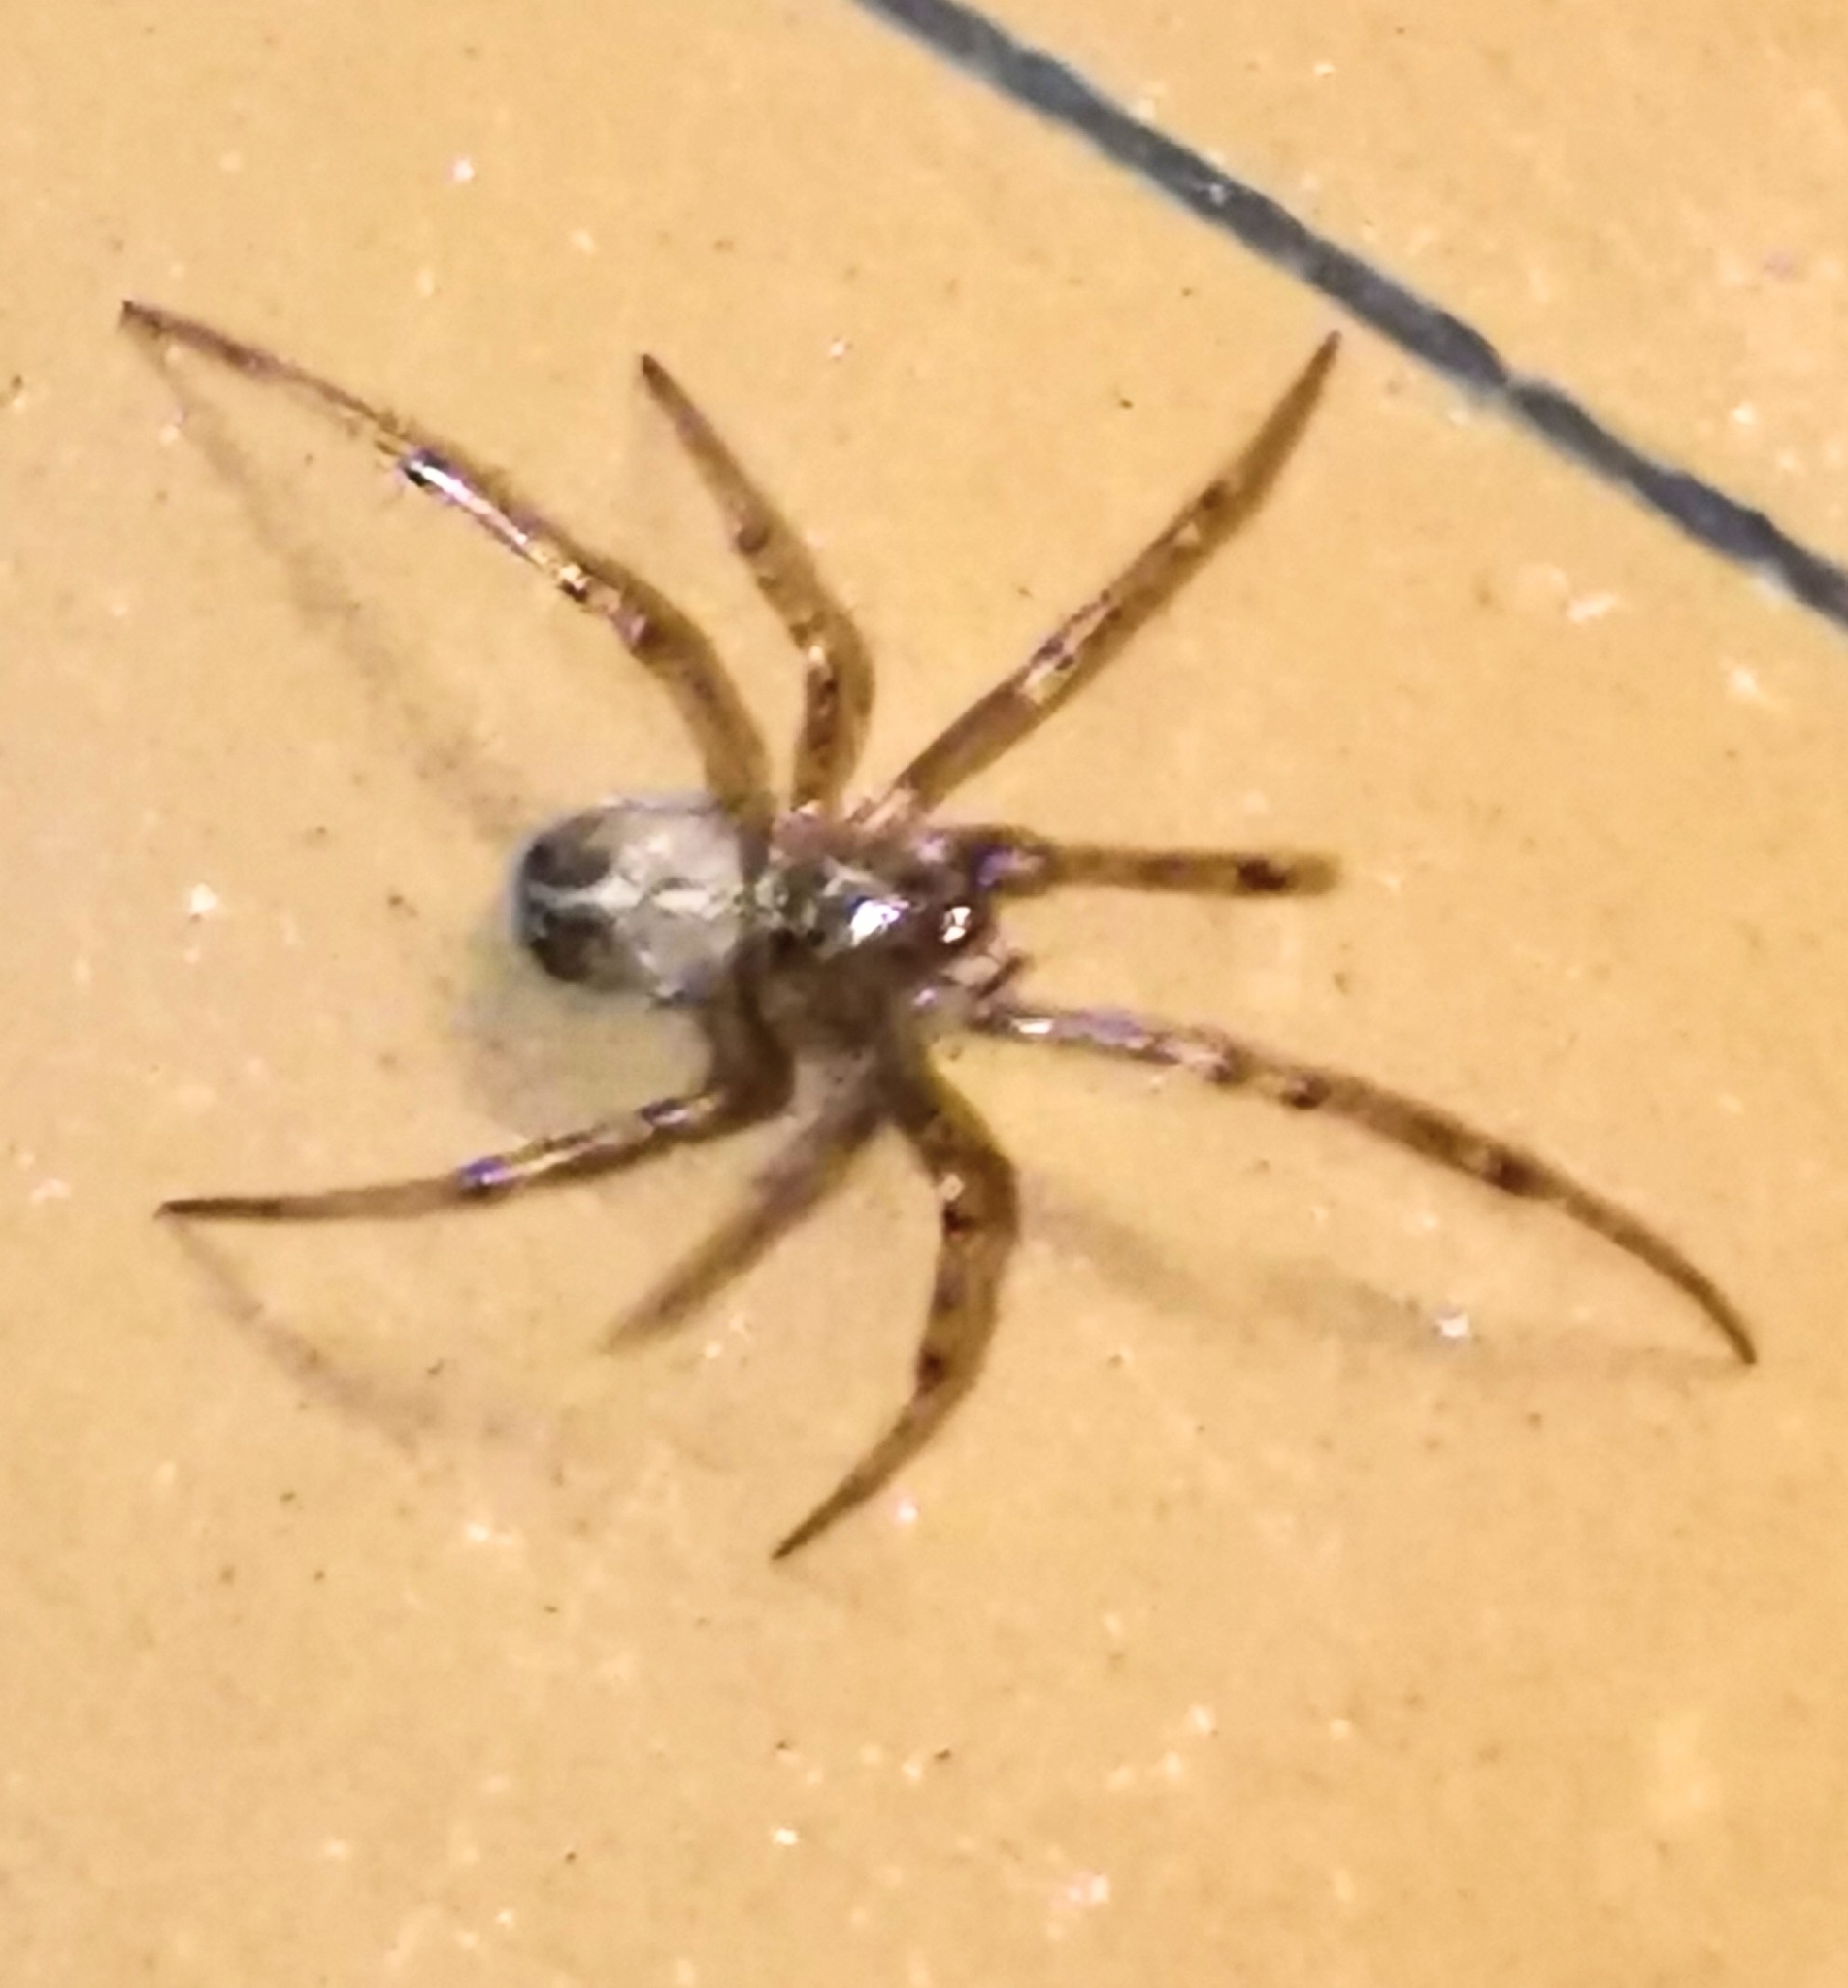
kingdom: Animalia
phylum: Arthropoda
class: Arachnida
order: Araneae
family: Theridiidae
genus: Steatoda
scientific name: Steatoda castanea
